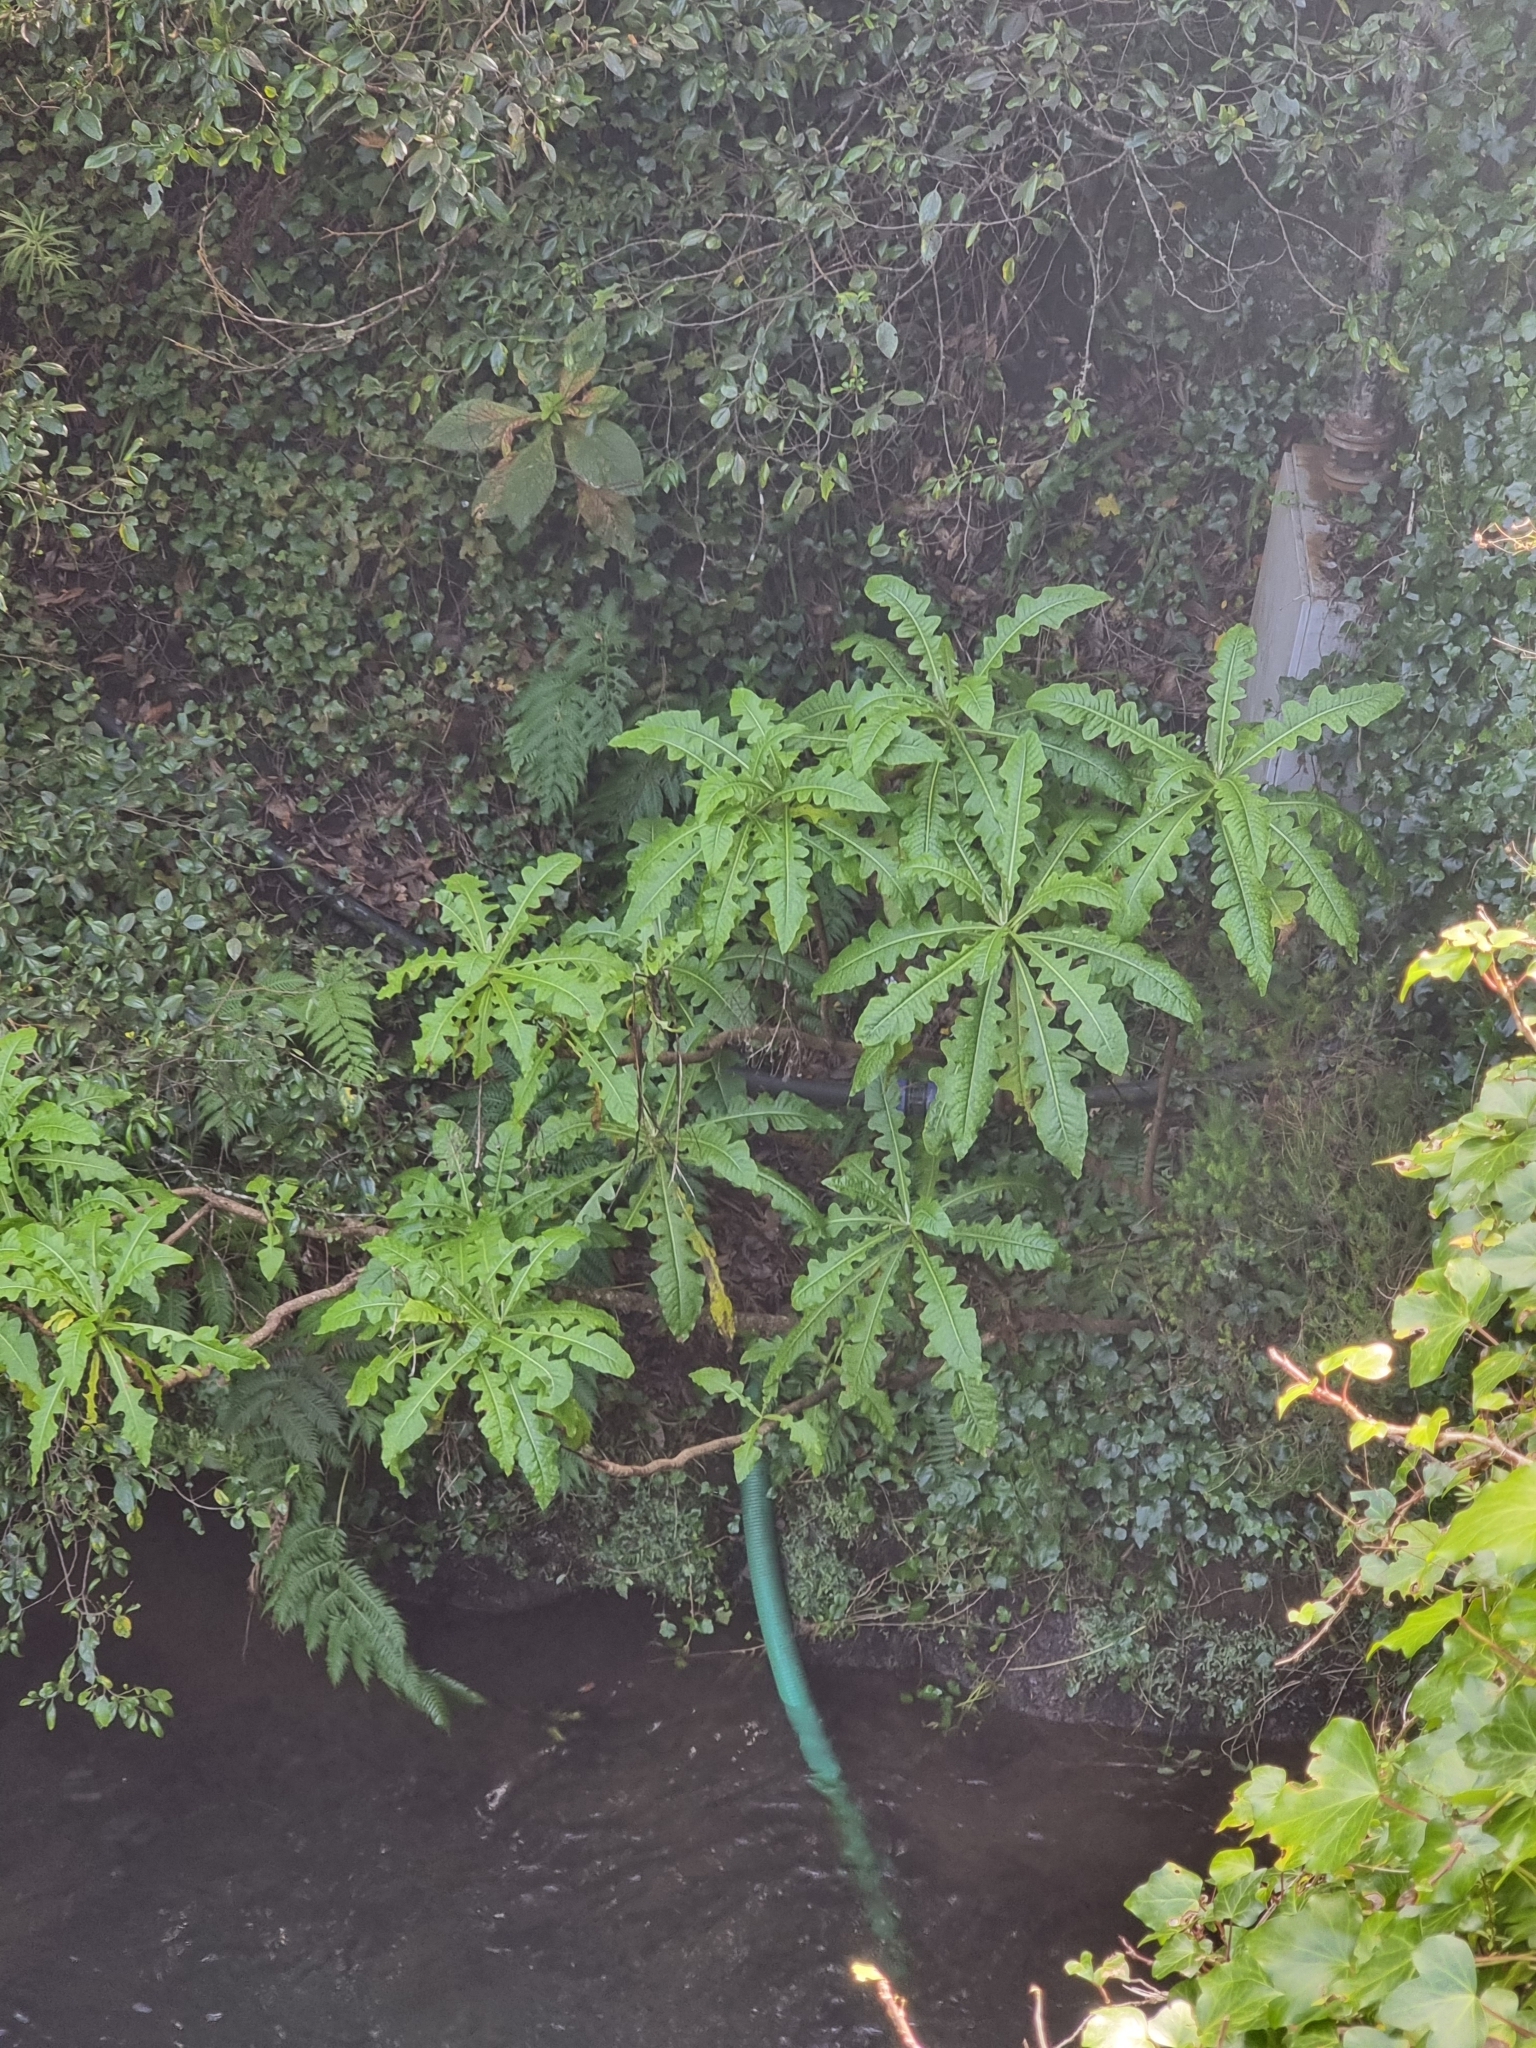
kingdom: Plantae
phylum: Tracheophyta
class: Magnoliopsida
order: Asterales
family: Asteraceae
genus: Sonchus
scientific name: Sonchus fruticosus
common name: Shrubby sow-thistle
